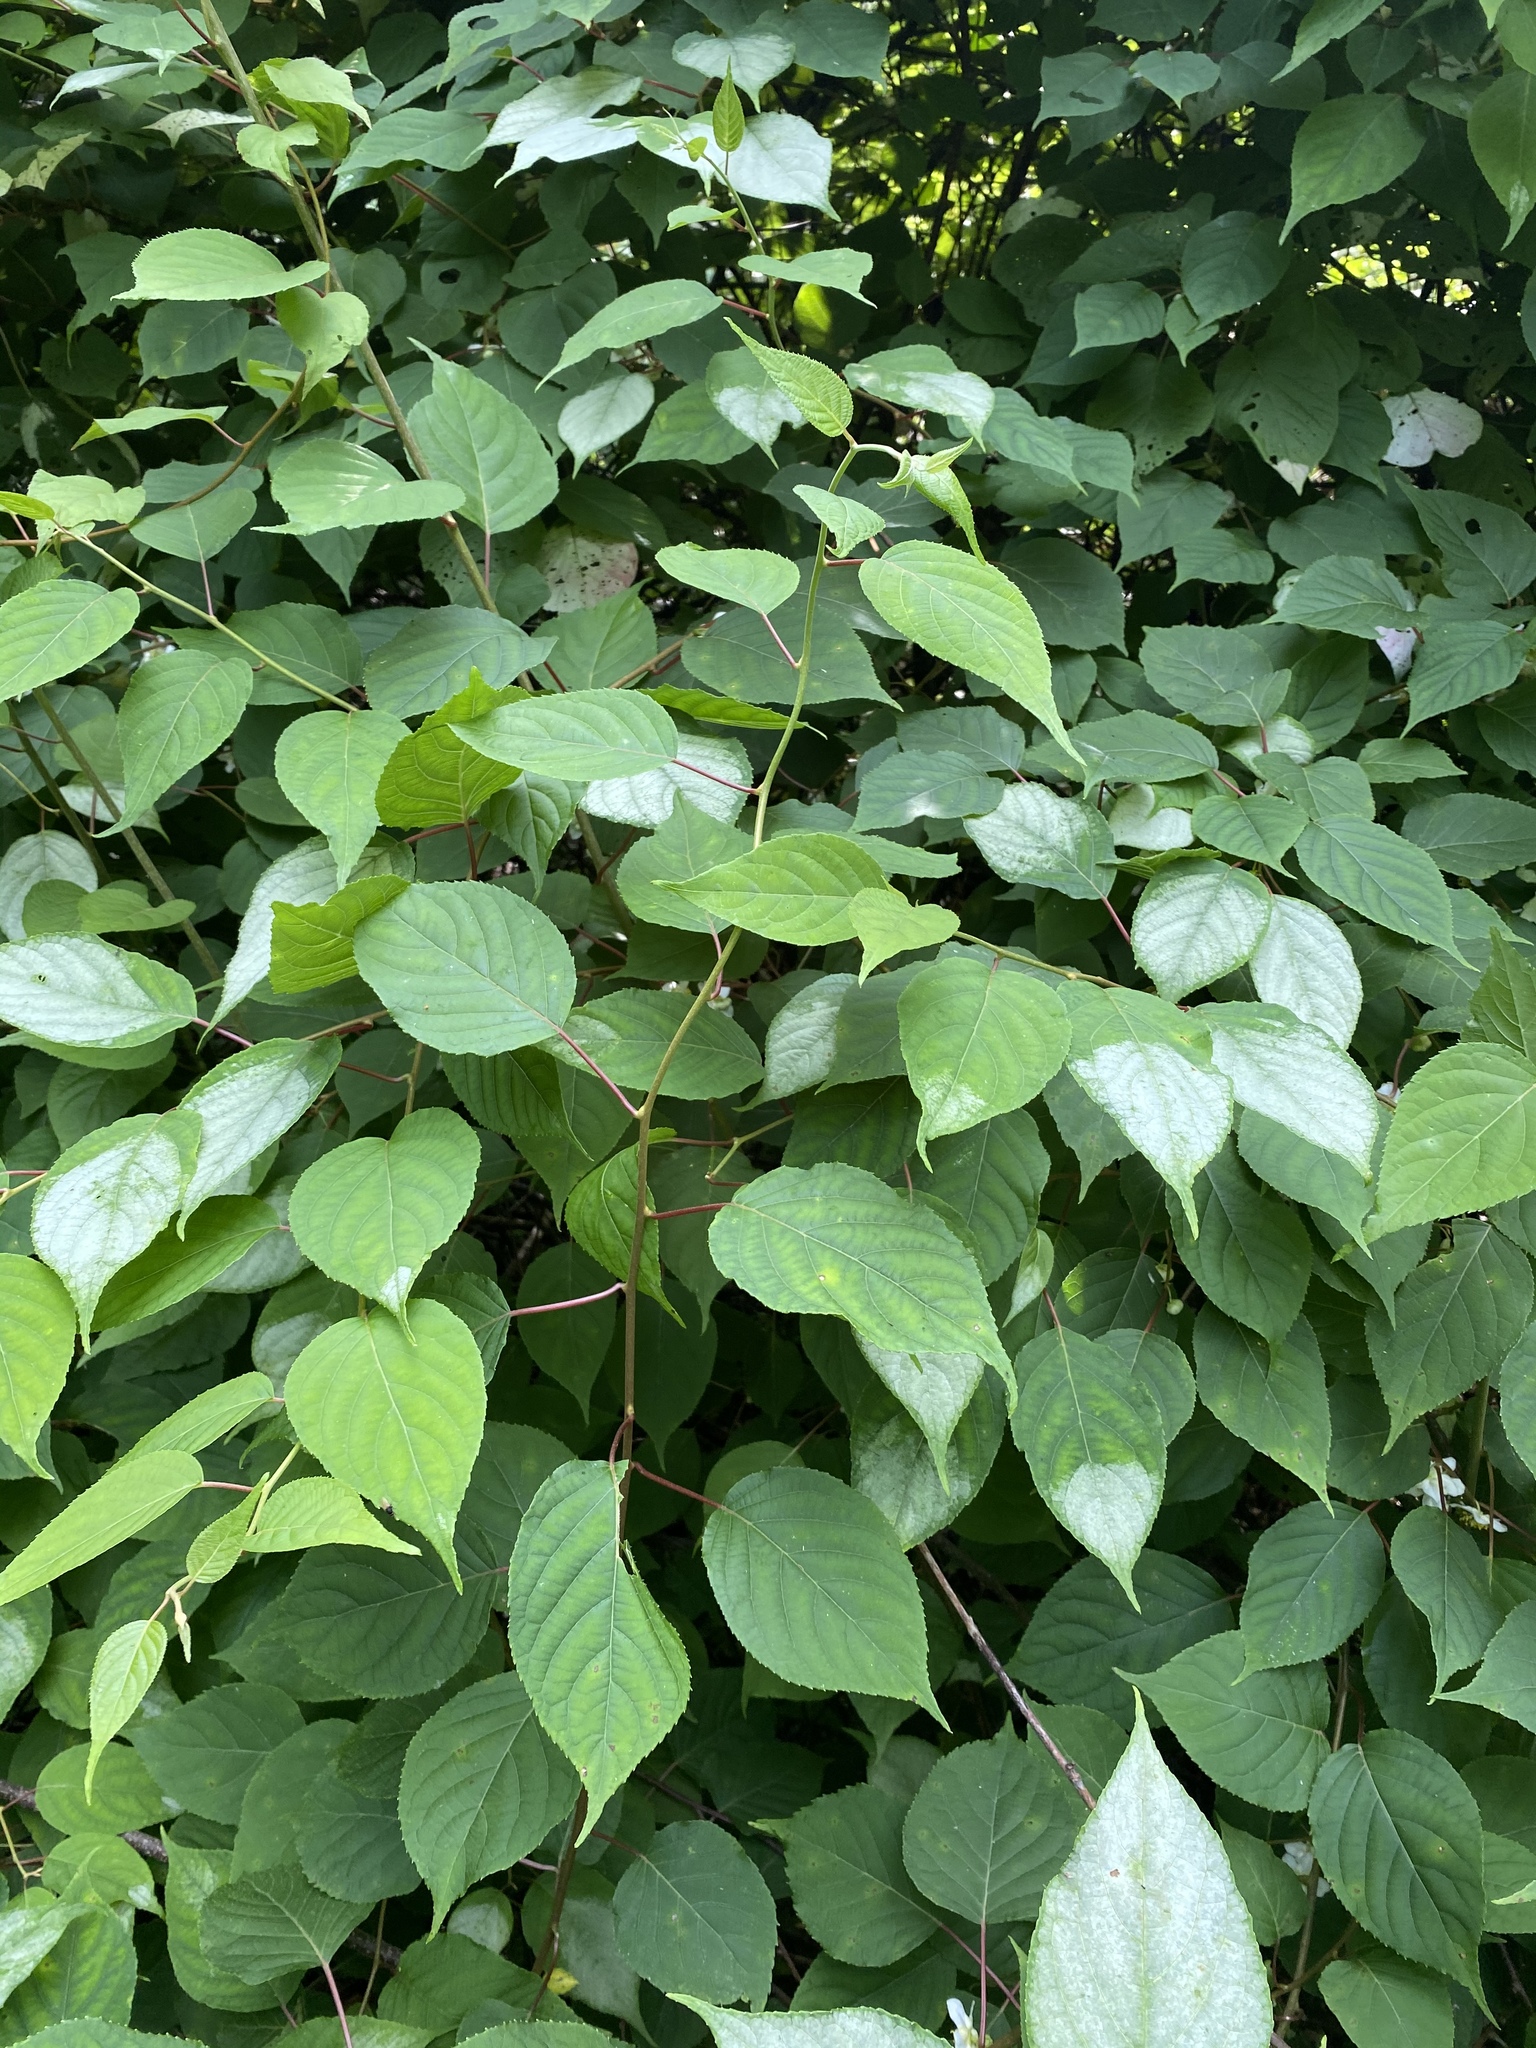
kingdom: Plantae
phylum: Tracheophyta
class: Magnoliopsida
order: Ericales
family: Actinidiaceae
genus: Actinidia
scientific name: Actinidia polygama
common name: Silver vine
